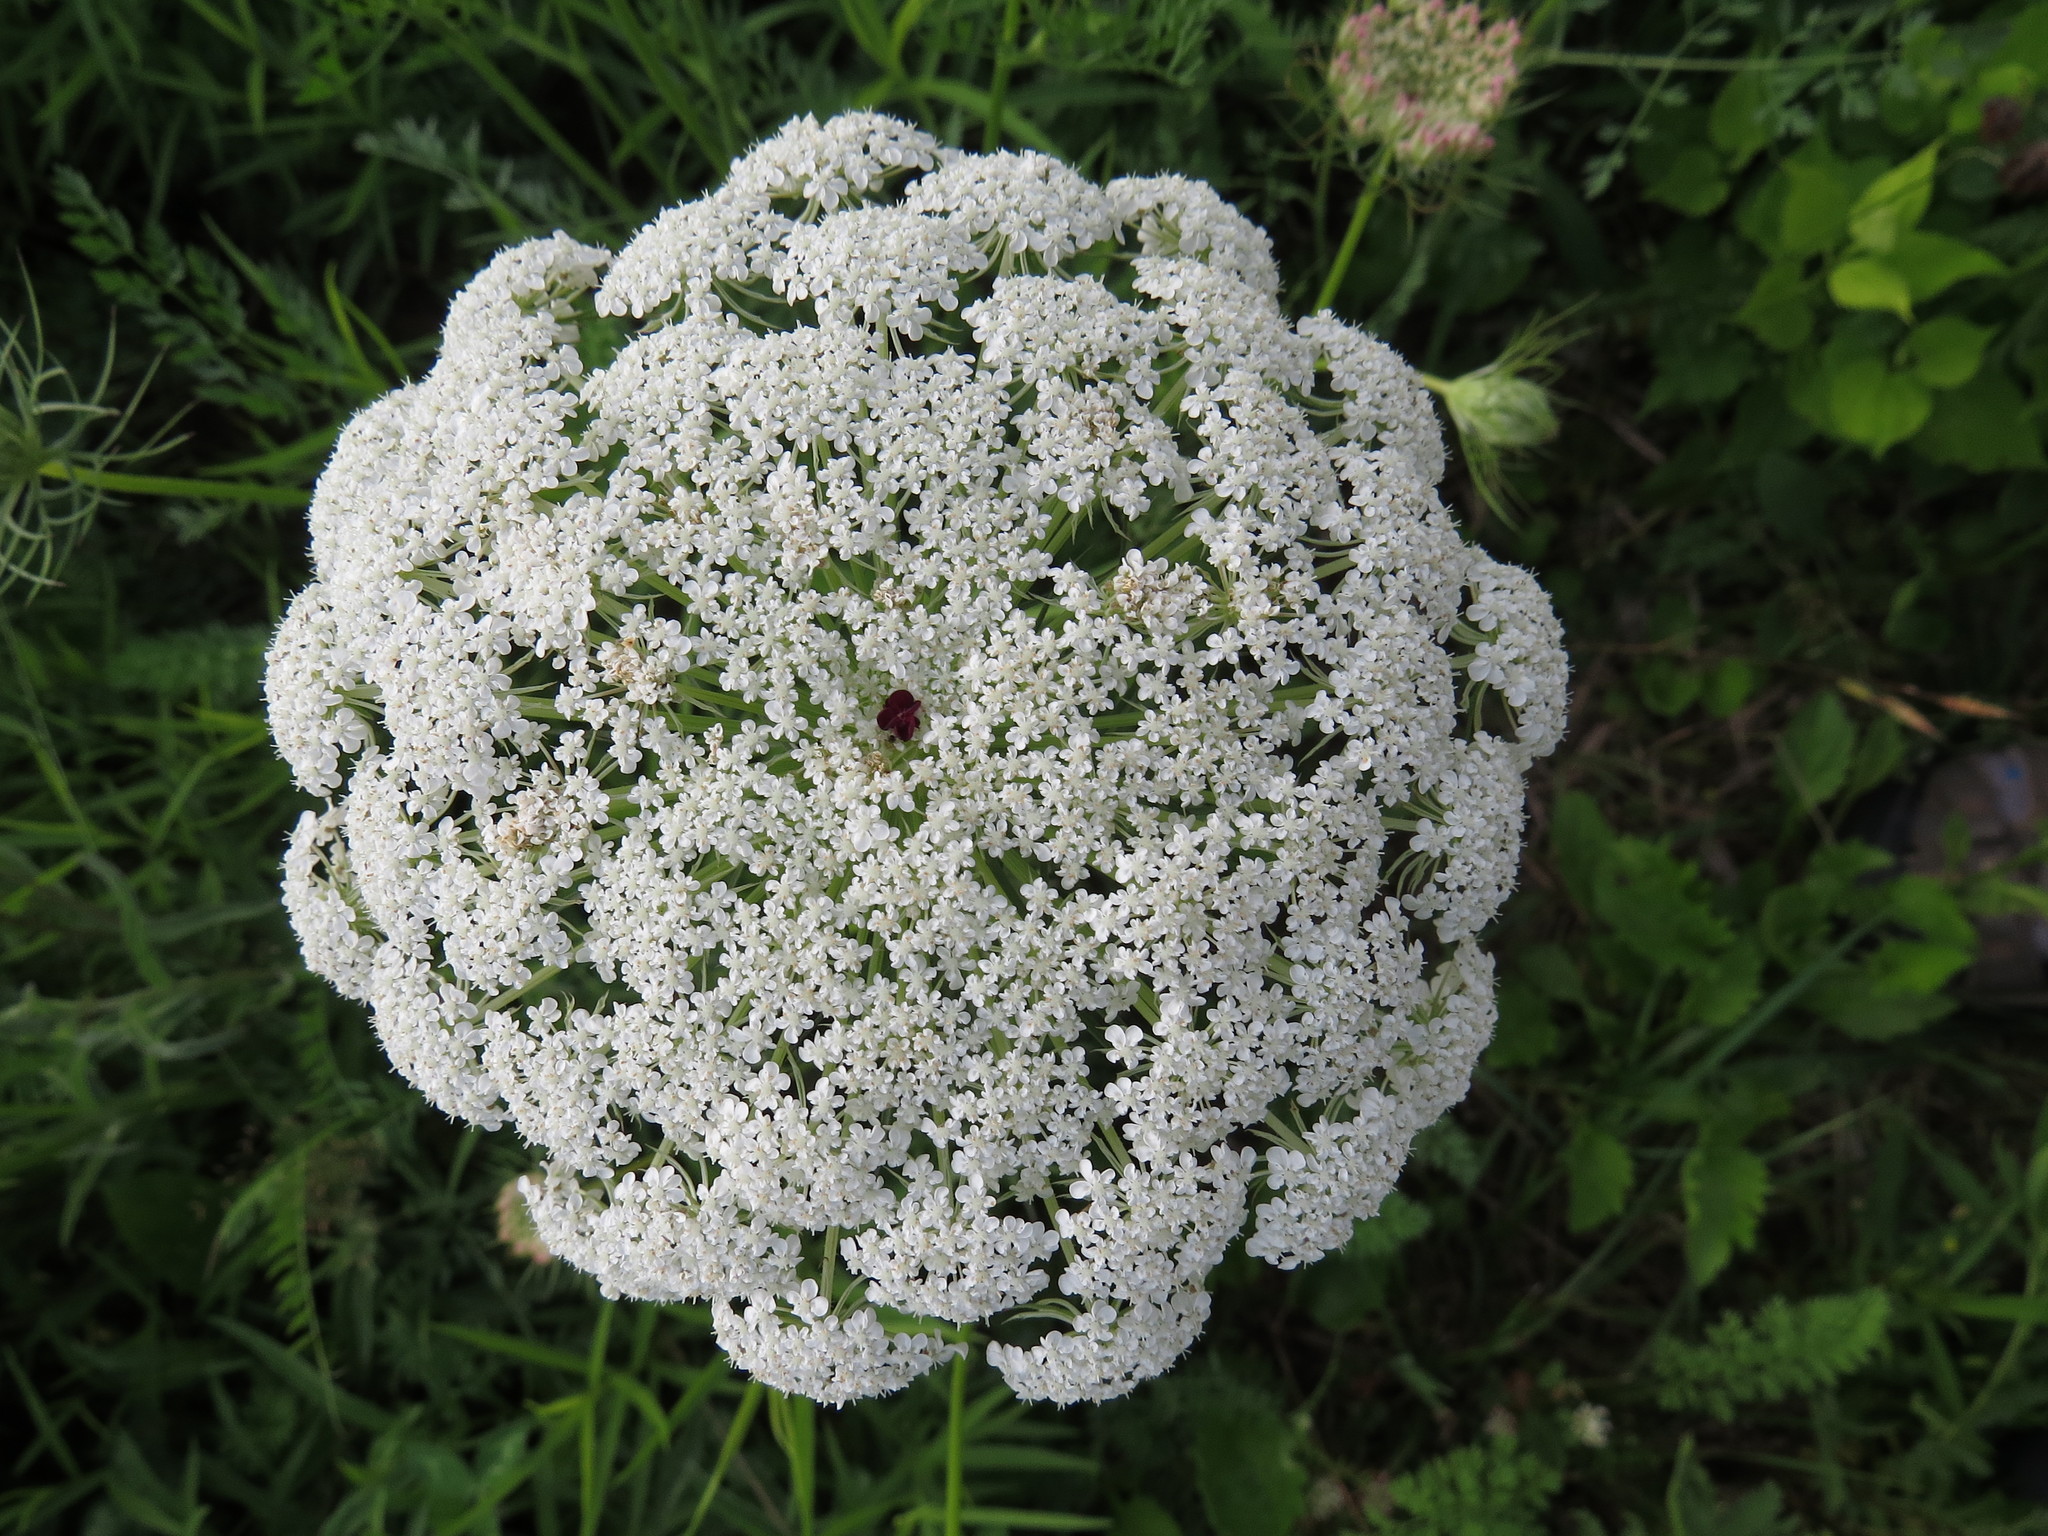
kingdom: Plantae
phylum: Tracheophyta
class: Magnoliopsida
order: Apiales
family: Apiaceae
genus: Daucus
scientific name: Daucus carota
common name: Wild carrot
